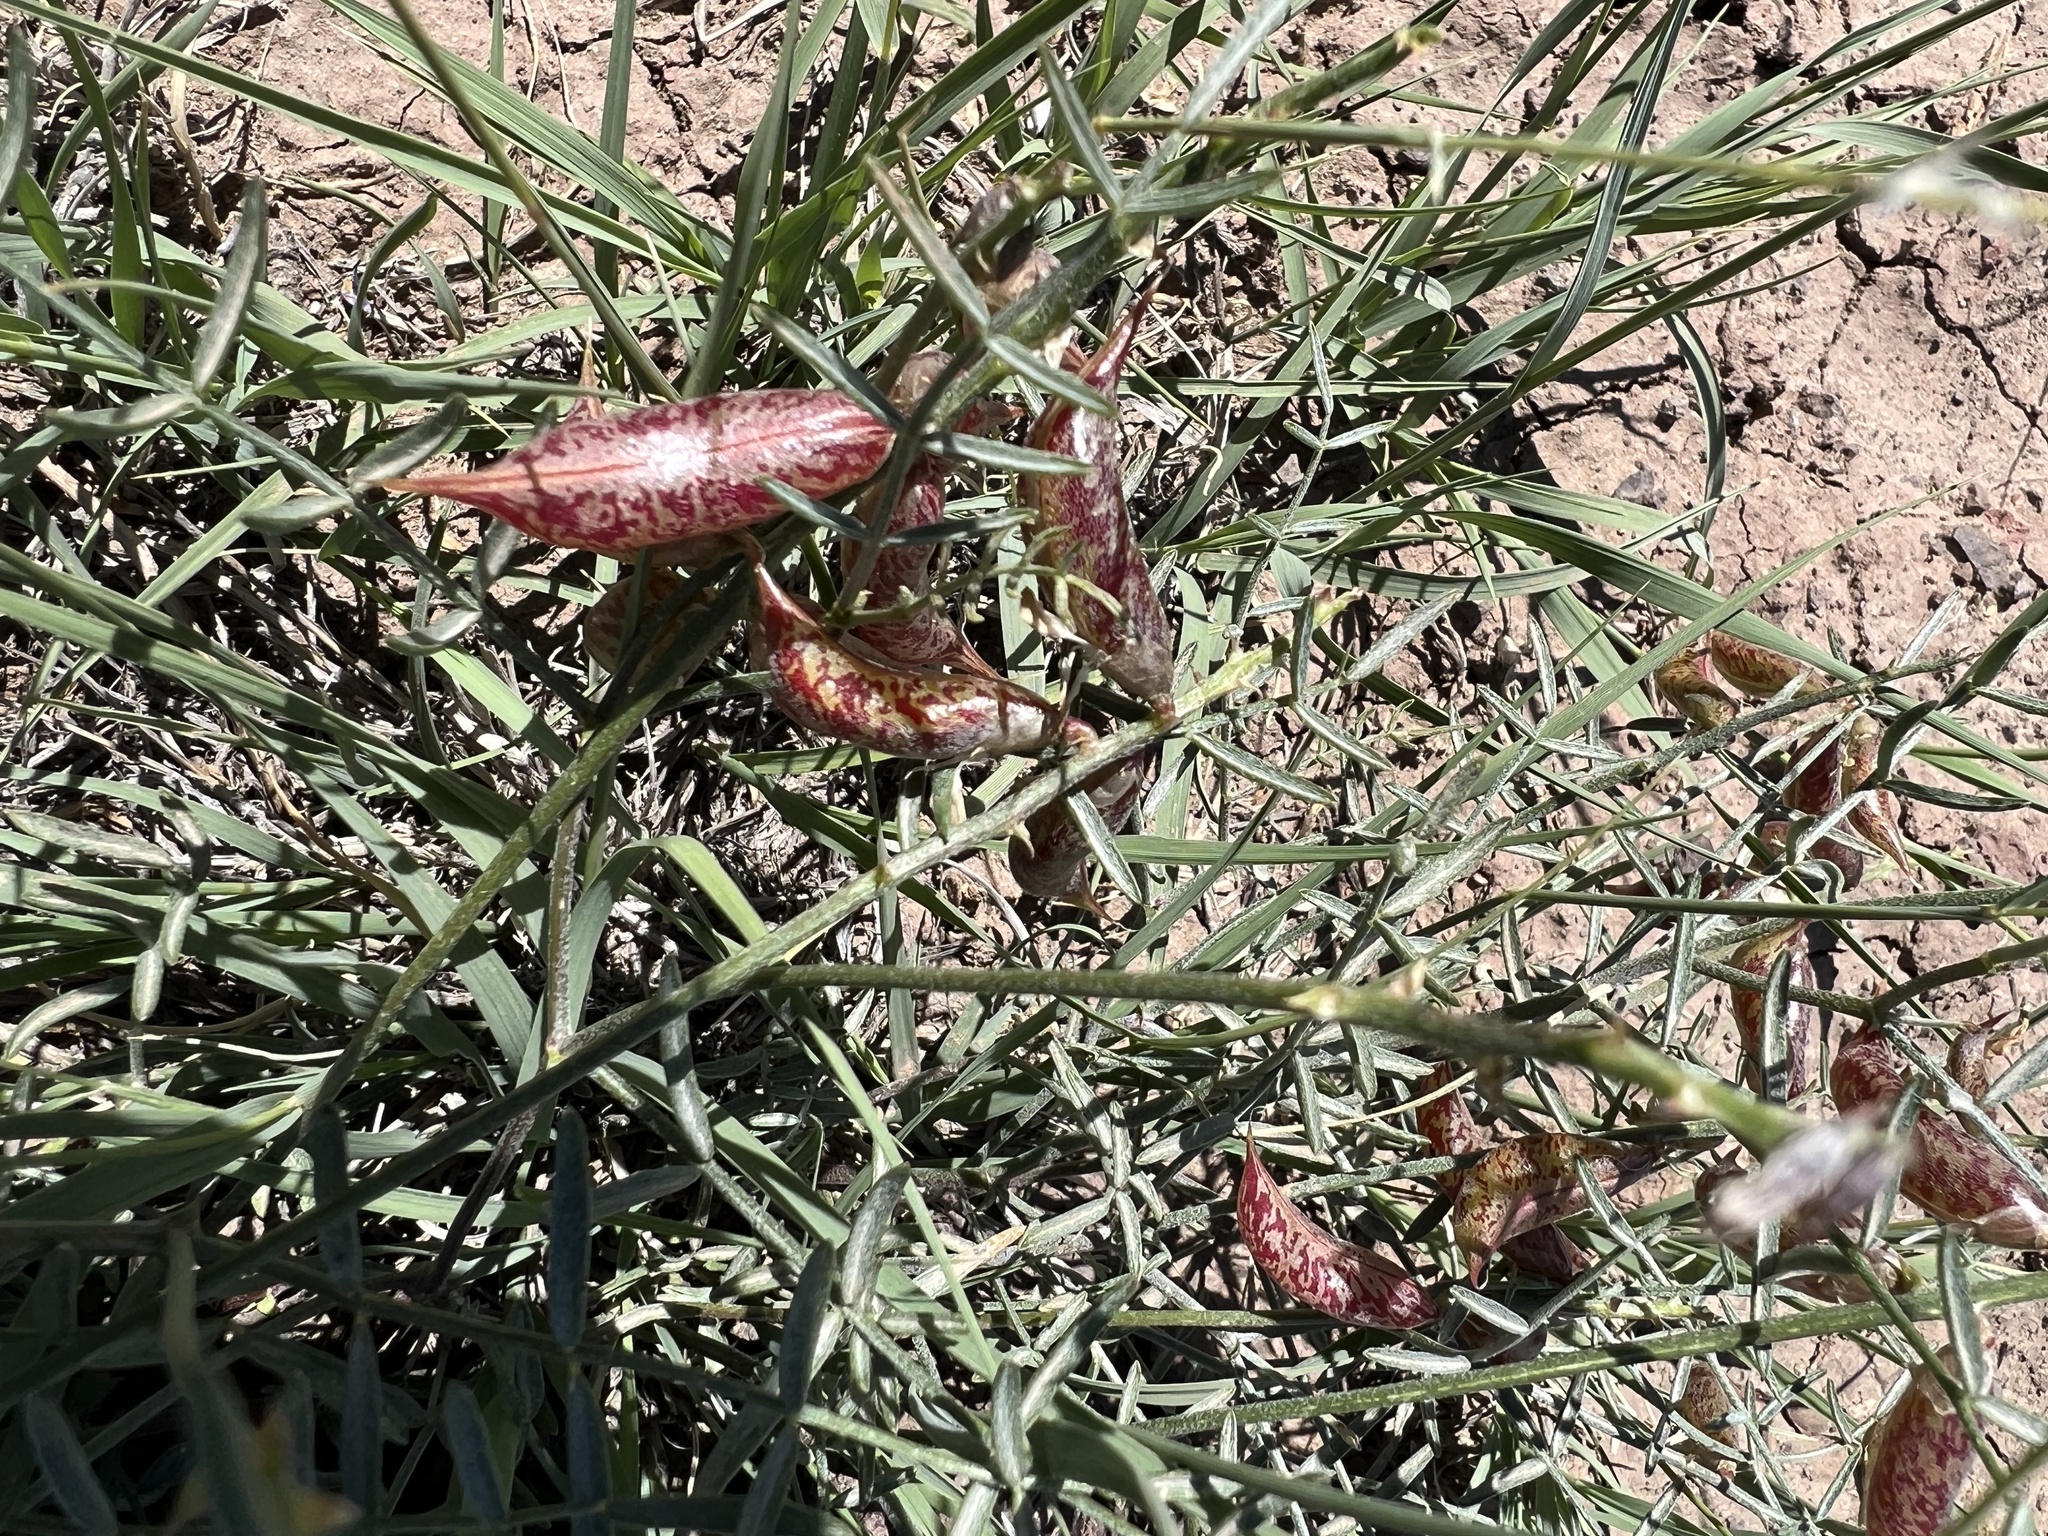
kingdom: Plantae
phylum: Tracheophyta
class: Magnoliopsida
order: Fabales
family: Fabaceae
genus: Astragalus
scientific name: Astragalus casei
